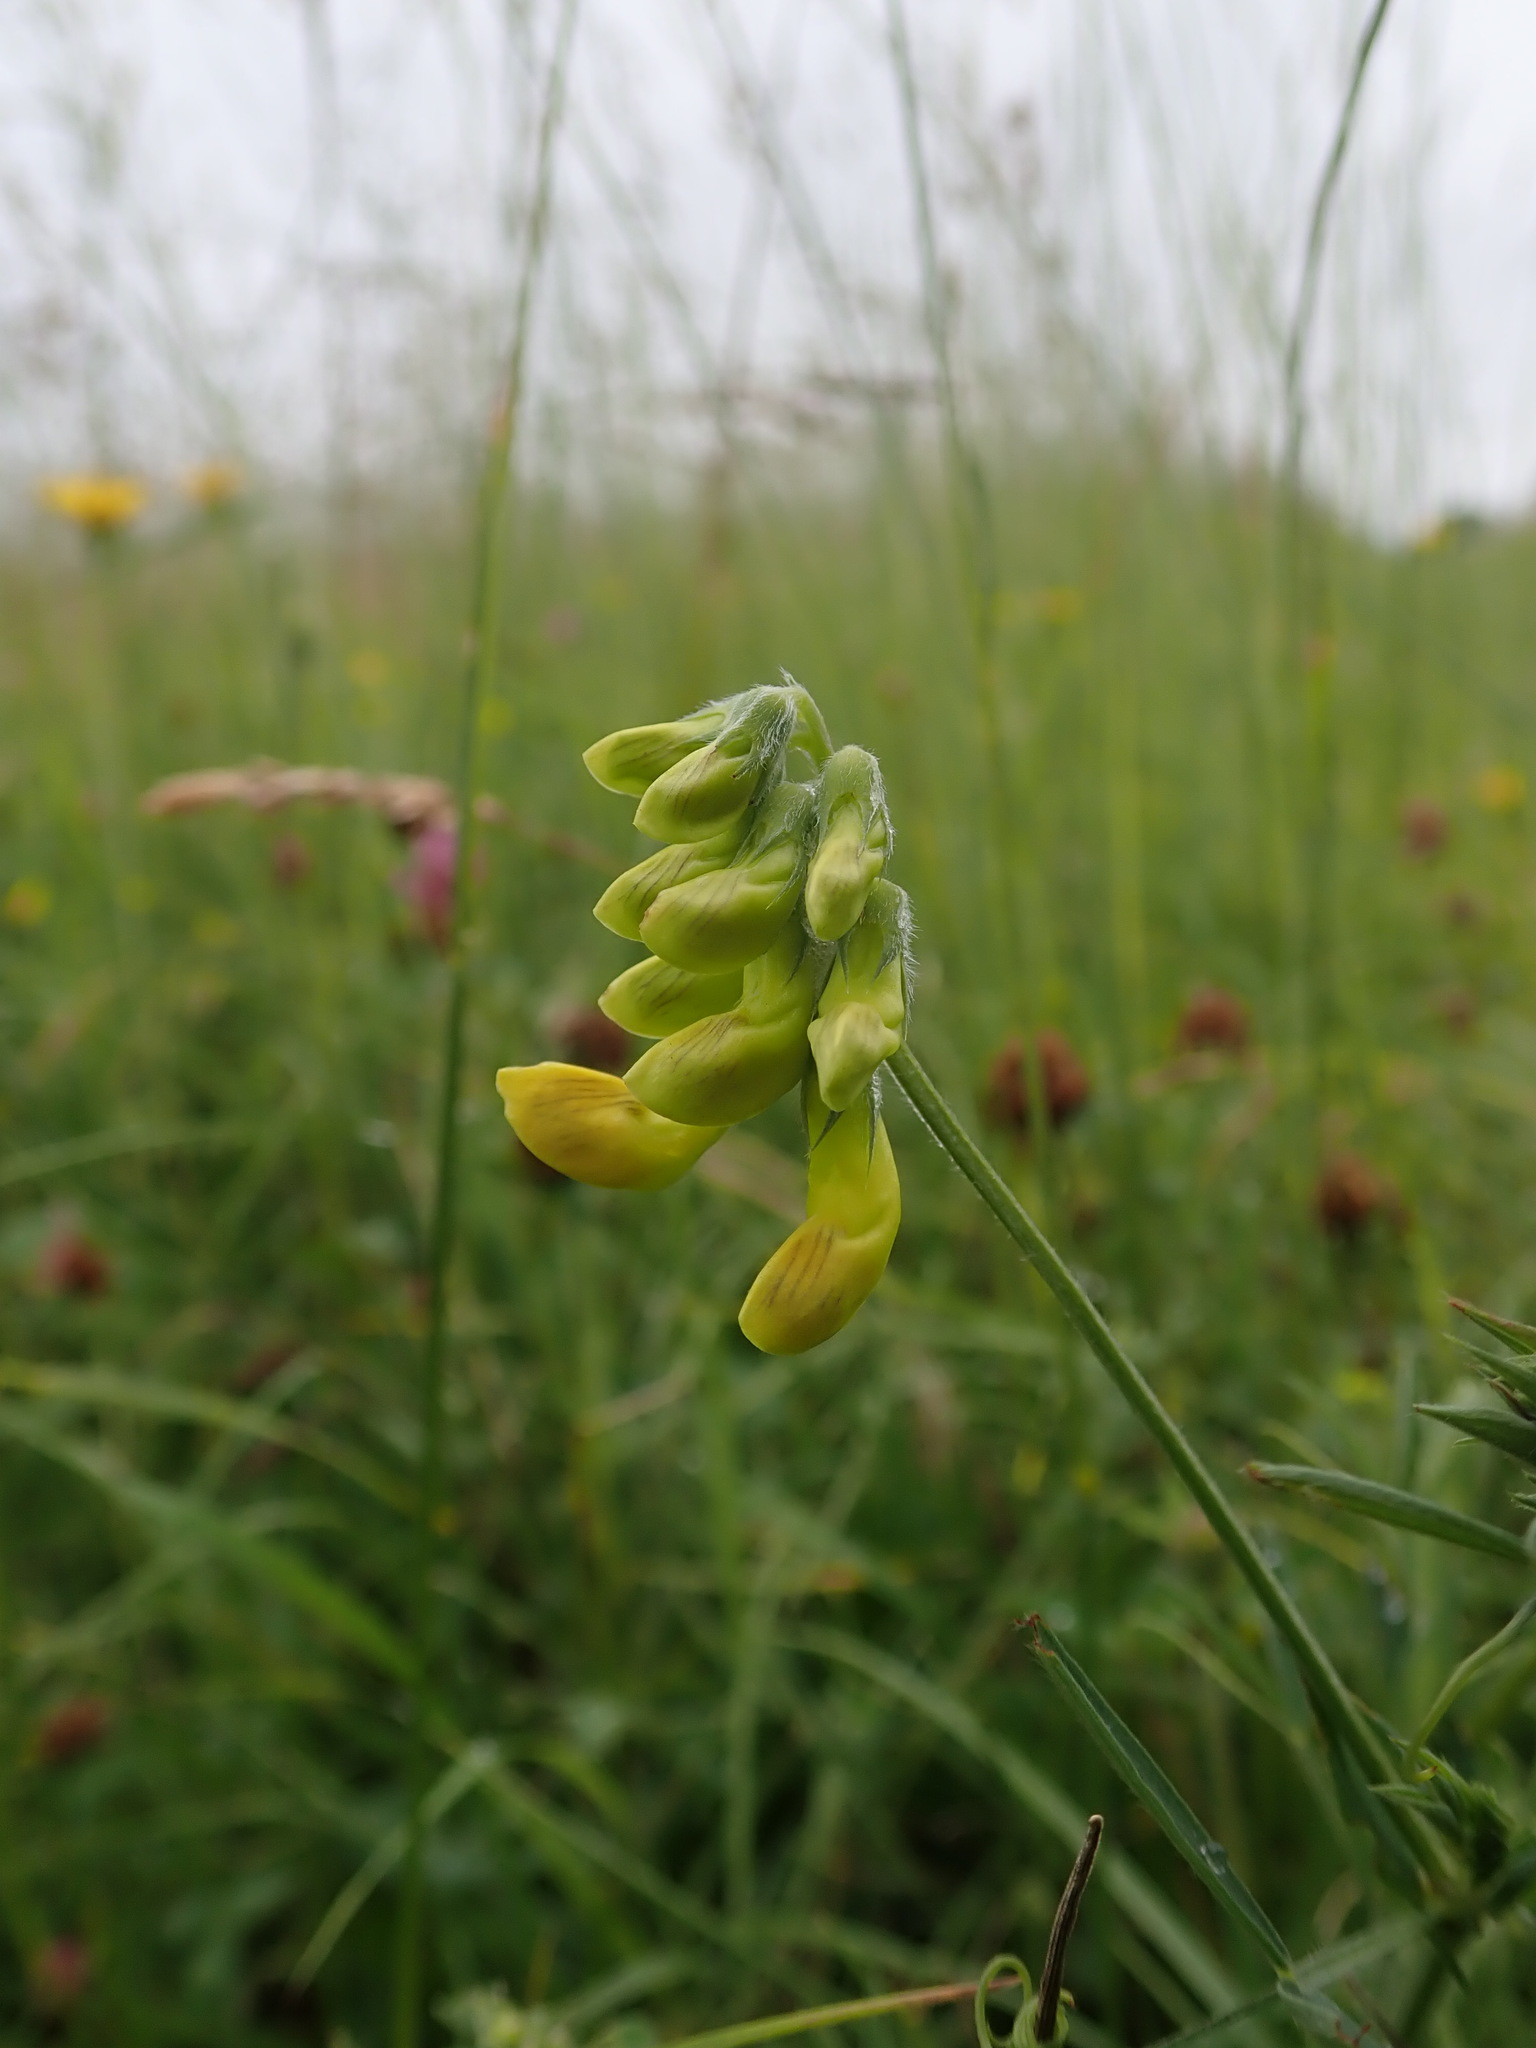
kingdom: Plantae
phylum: Tracheophyta
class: Magnoliopsida
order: Fabales
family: Fabaceae
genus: Lathyrus
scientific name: Lathyrus pratensis
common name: Meadow vetchling
